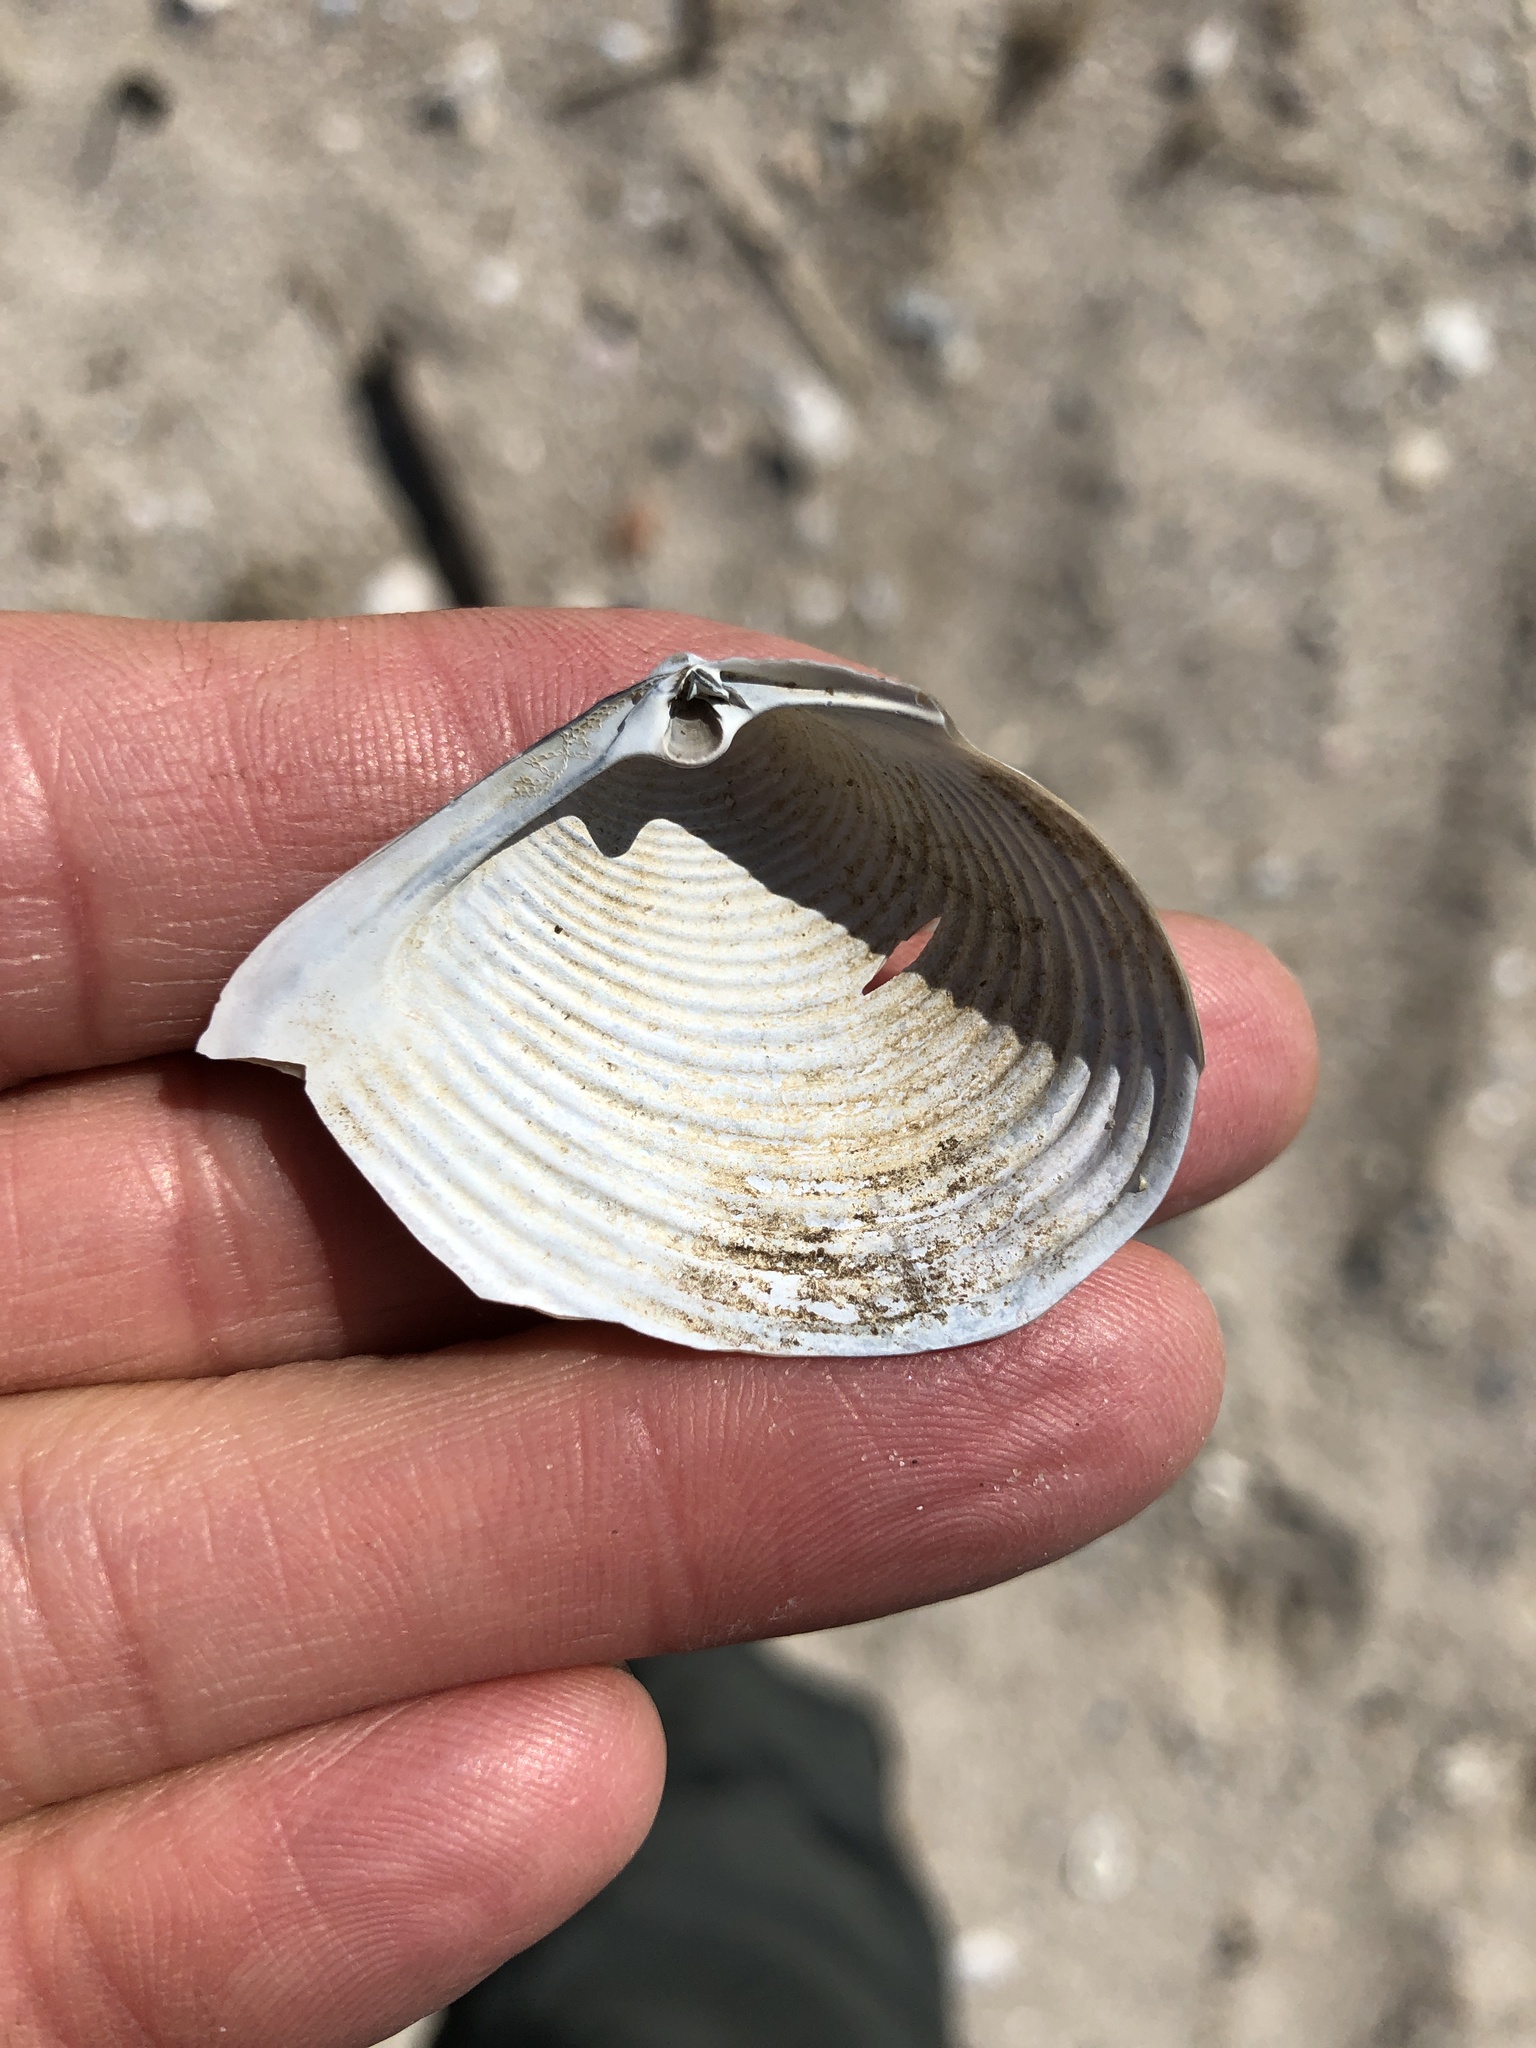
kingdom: Animalia
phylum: Mollusca
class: Bivalvia
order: Venerida
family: Anatinellidae
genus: Raeta
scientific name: Raeta plicatella
